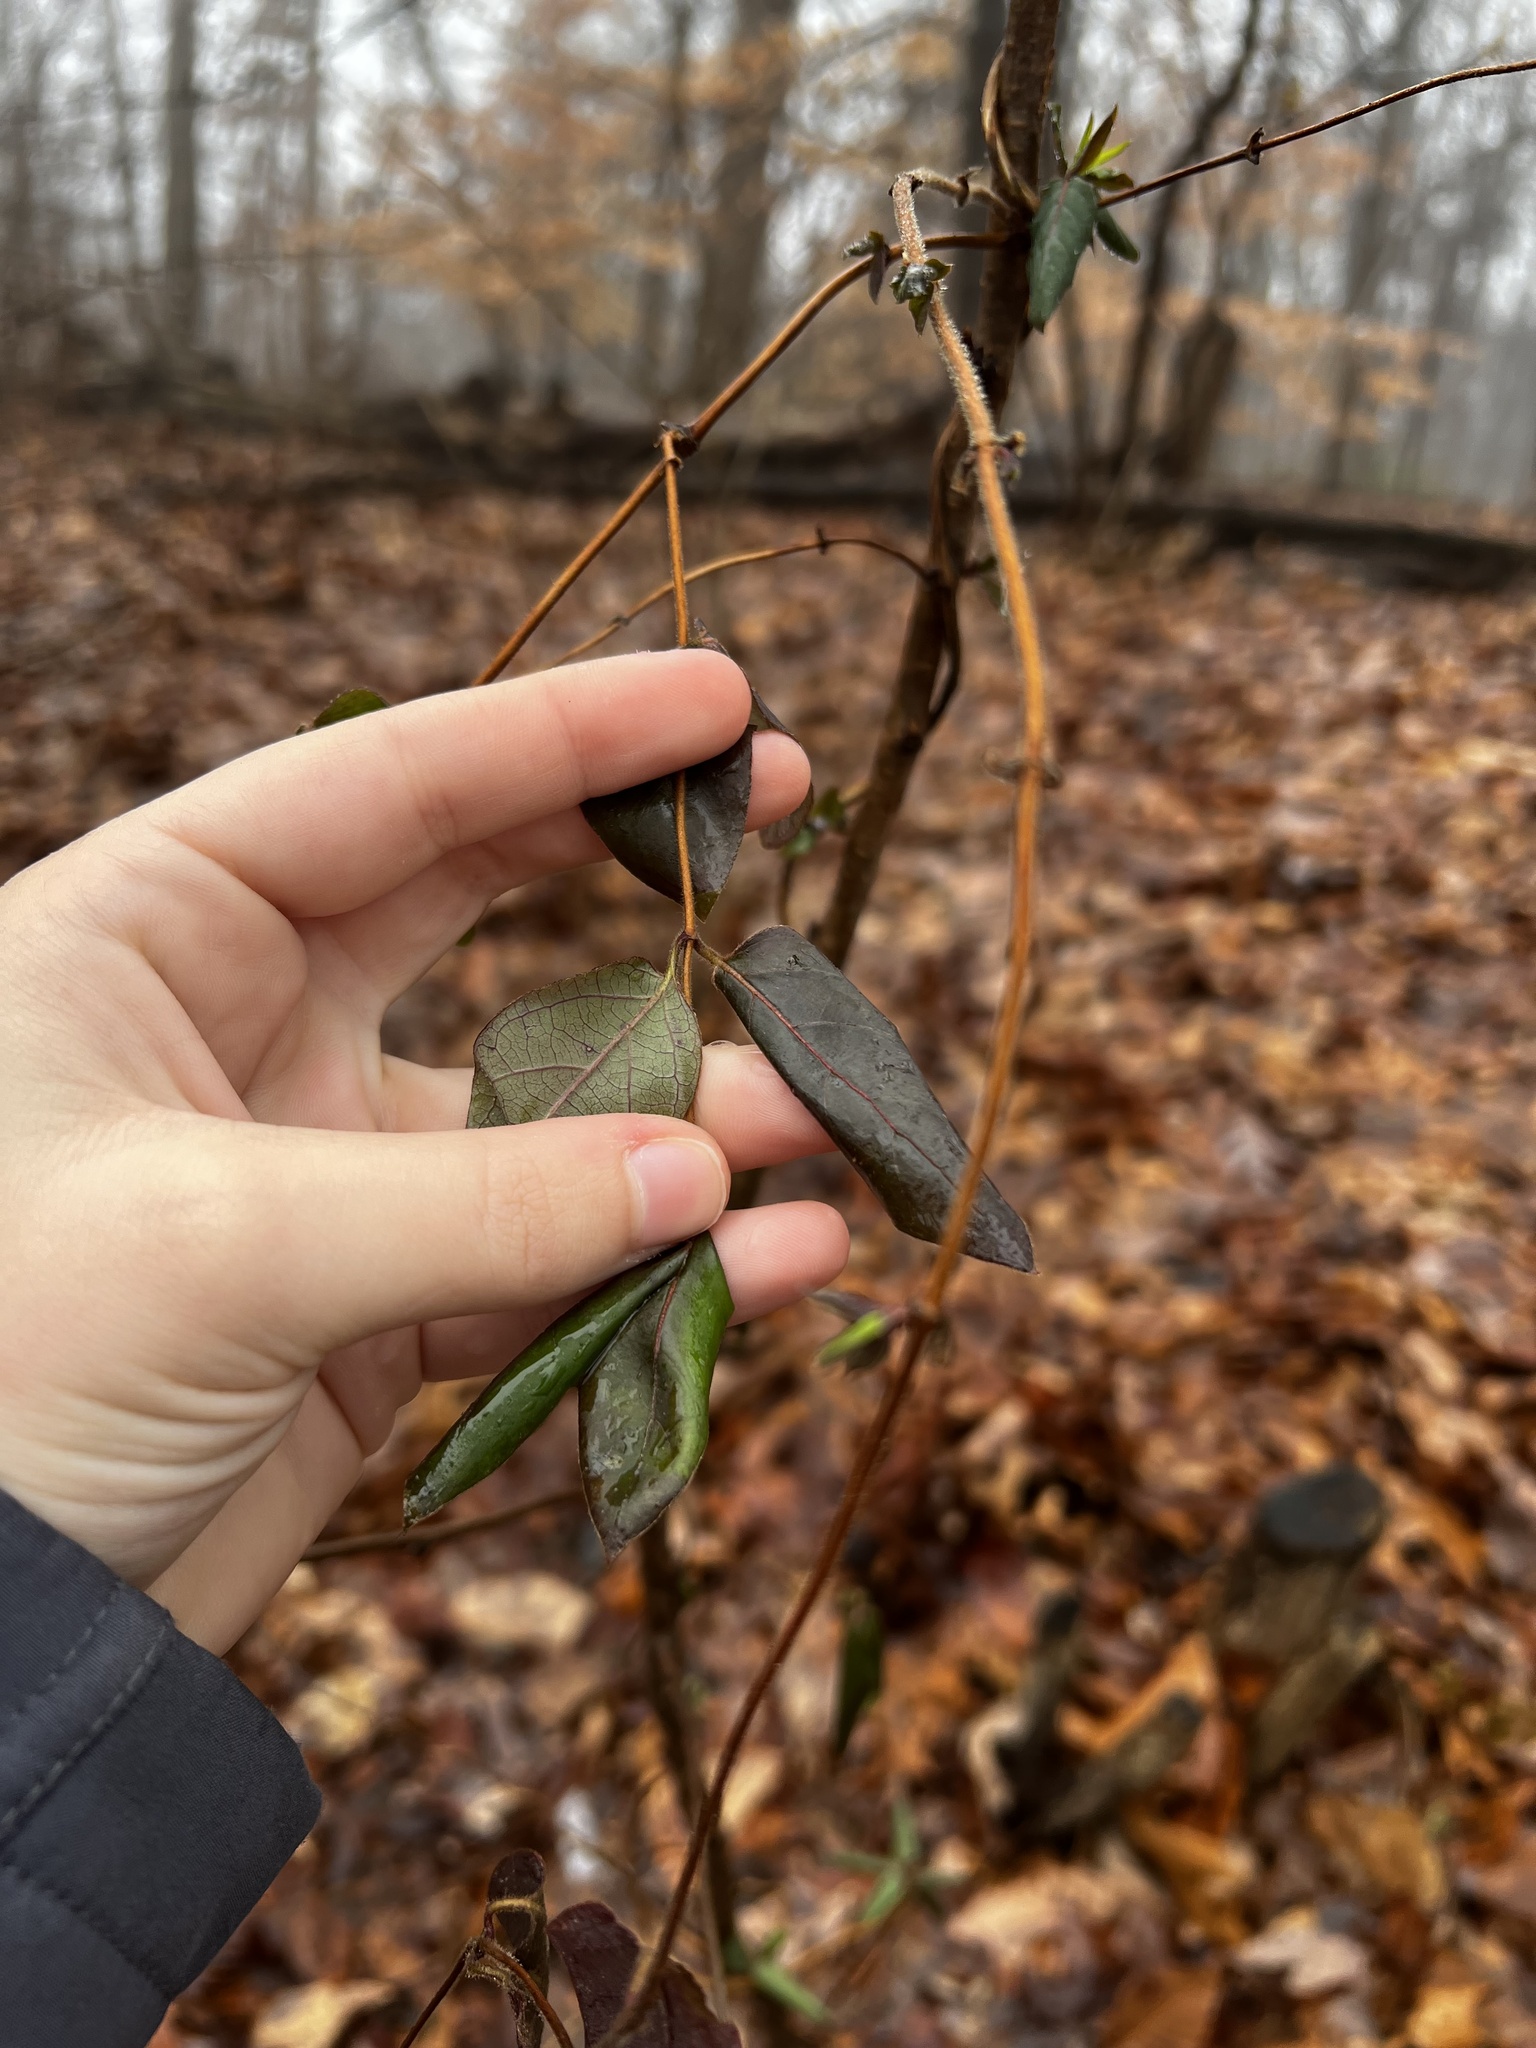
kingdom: Plantae
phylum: Tracheophyta
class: Magnoliopsida
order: Dipsacales
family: Caprifoliaceae
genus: Lonicera
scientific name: Lonicera japonica
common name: Japanese honeysuckle
